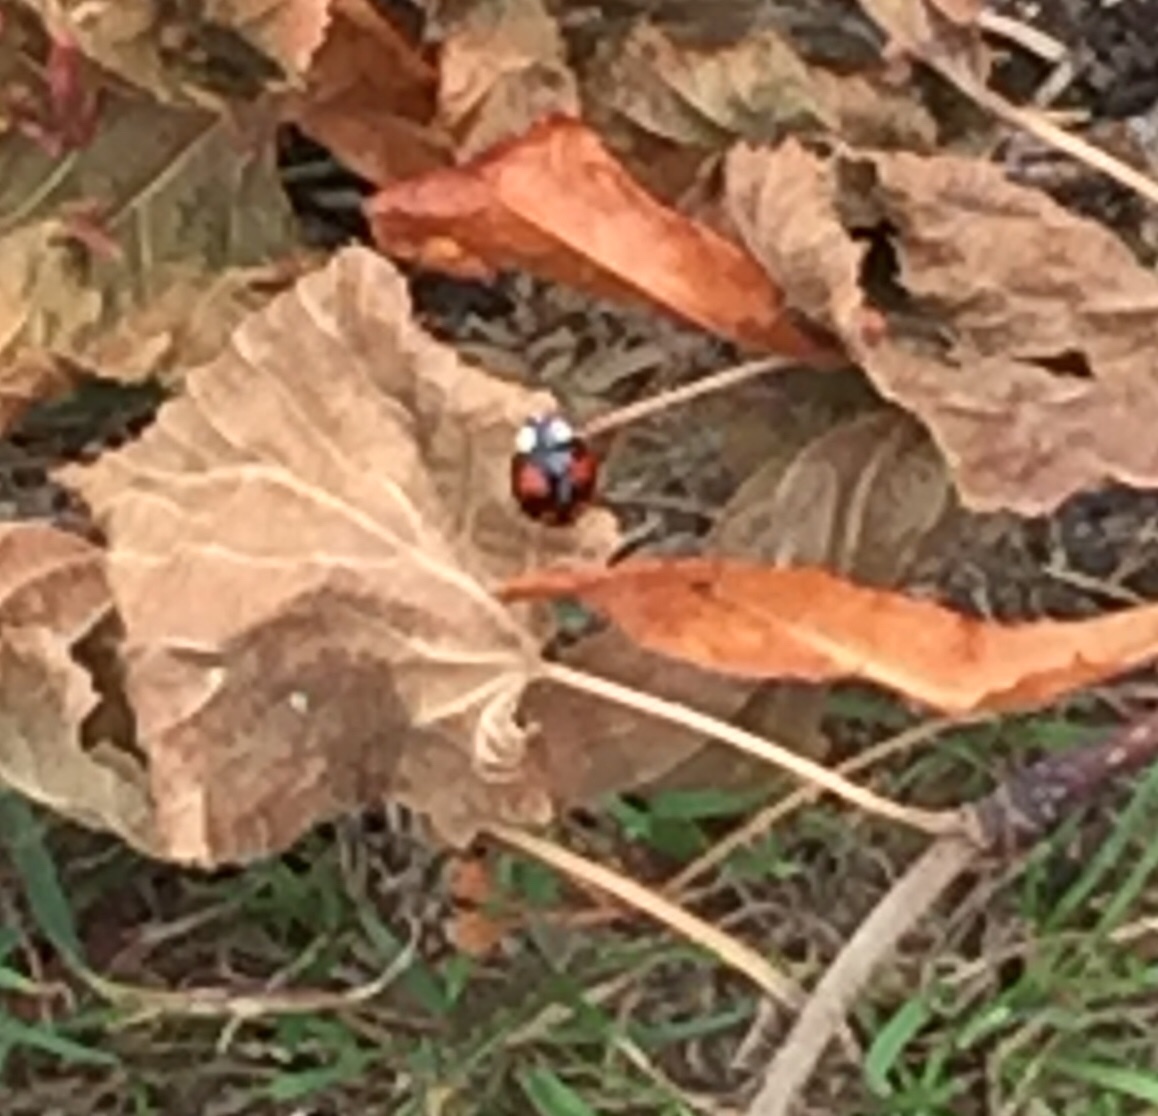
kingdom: Animalia
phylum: Arthropoda
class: Insecta
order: Coleoptera
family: Coccinellidae
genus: Harmonia
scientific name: Harmonia axyridis
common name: Harlequin ladybird
